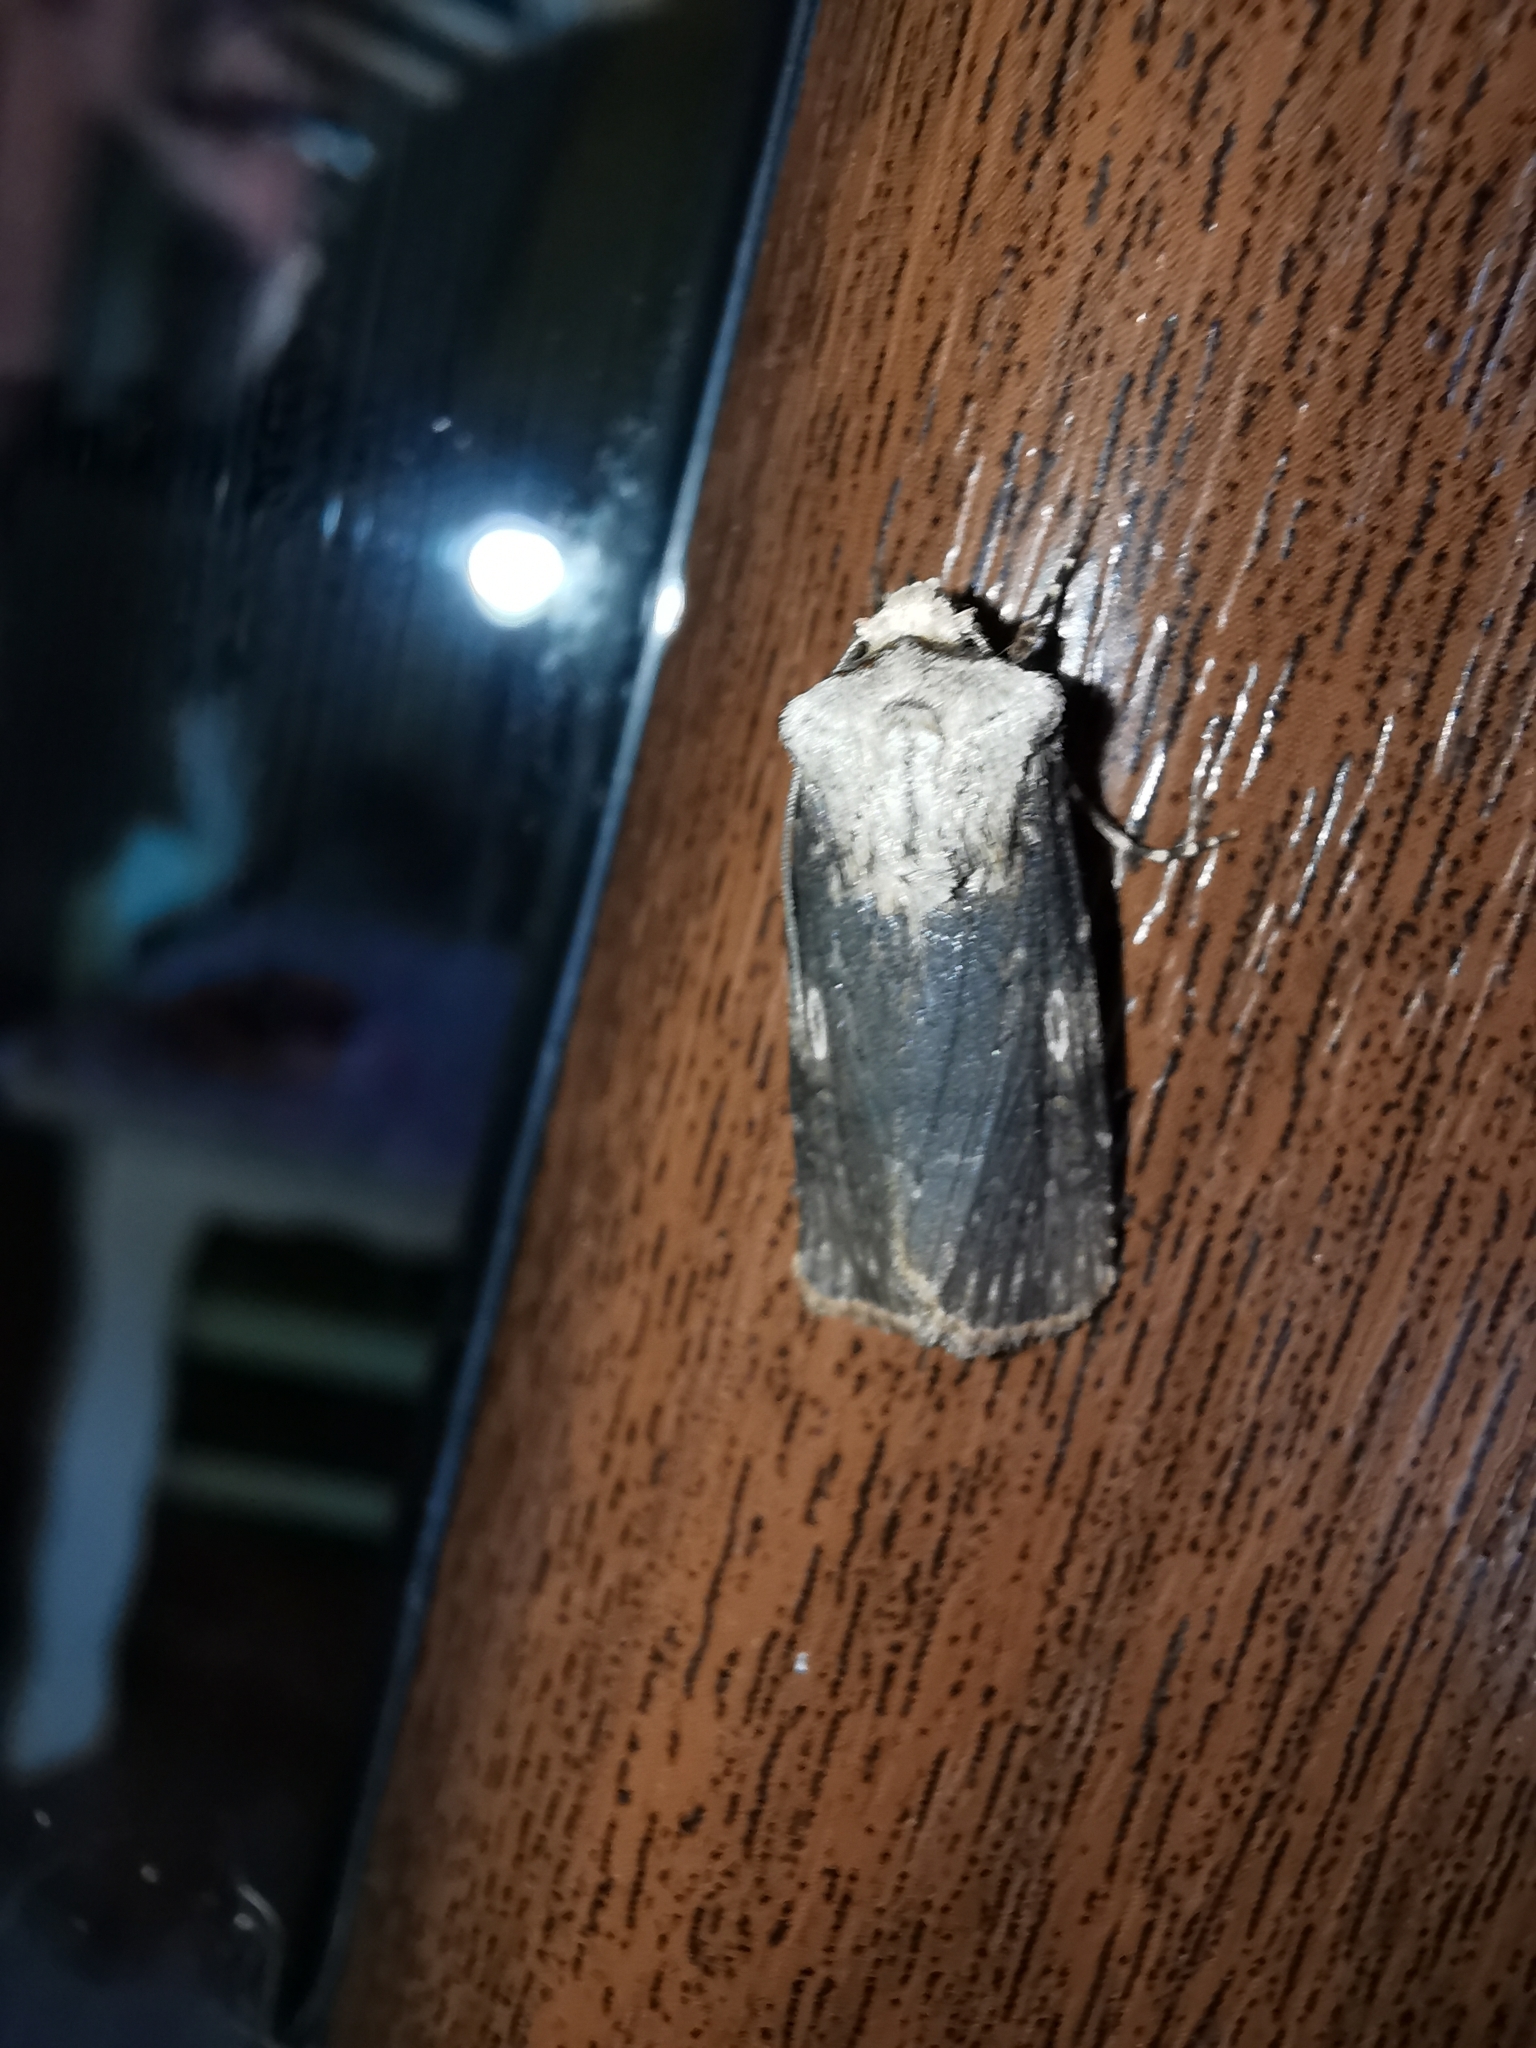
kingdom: Animalia
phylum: Arthropoda
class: Insecta
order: Lepidoptera
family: Noctuidae
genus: Agrotis
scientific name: Agrotis puta
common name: Shuttle-shaped dart
